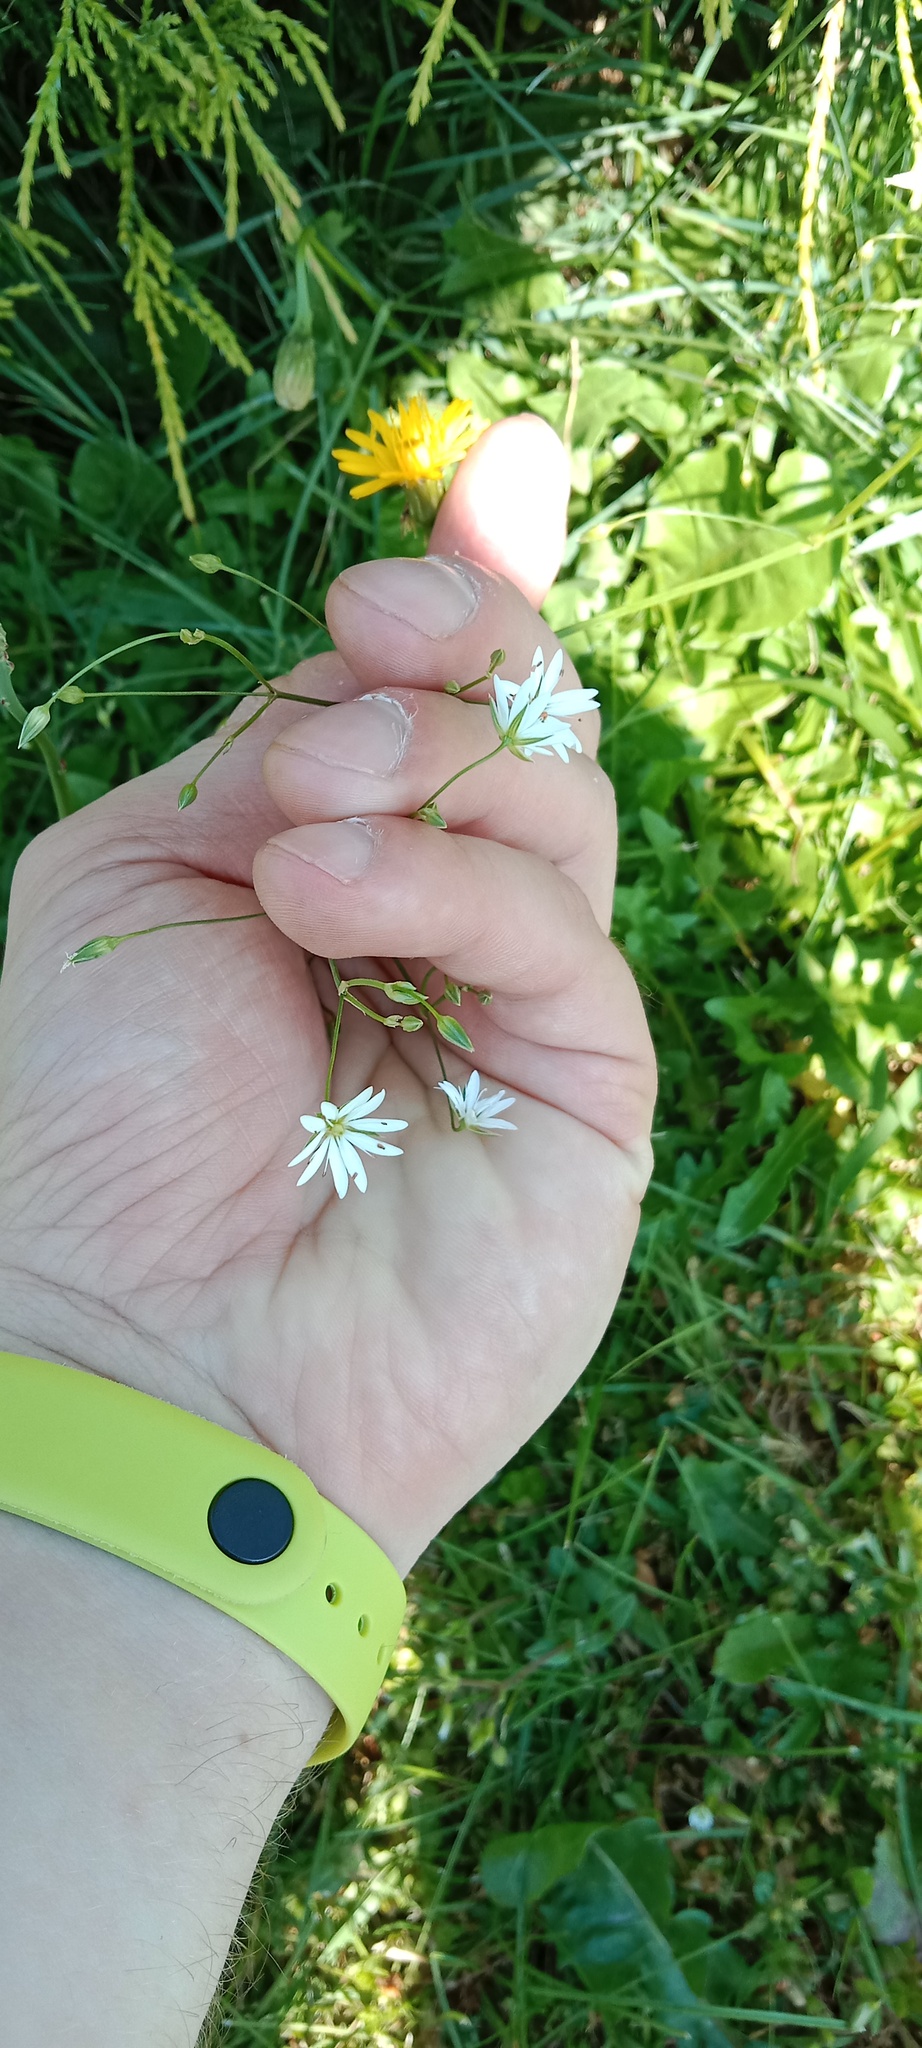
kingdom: Plantae
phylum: Tracheophyta
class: Magnoliopsida
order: Caryophyllales
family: Caryophyllaceae
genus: Stellaria
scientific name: Stellaria graminea
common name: Grass-like starwort
